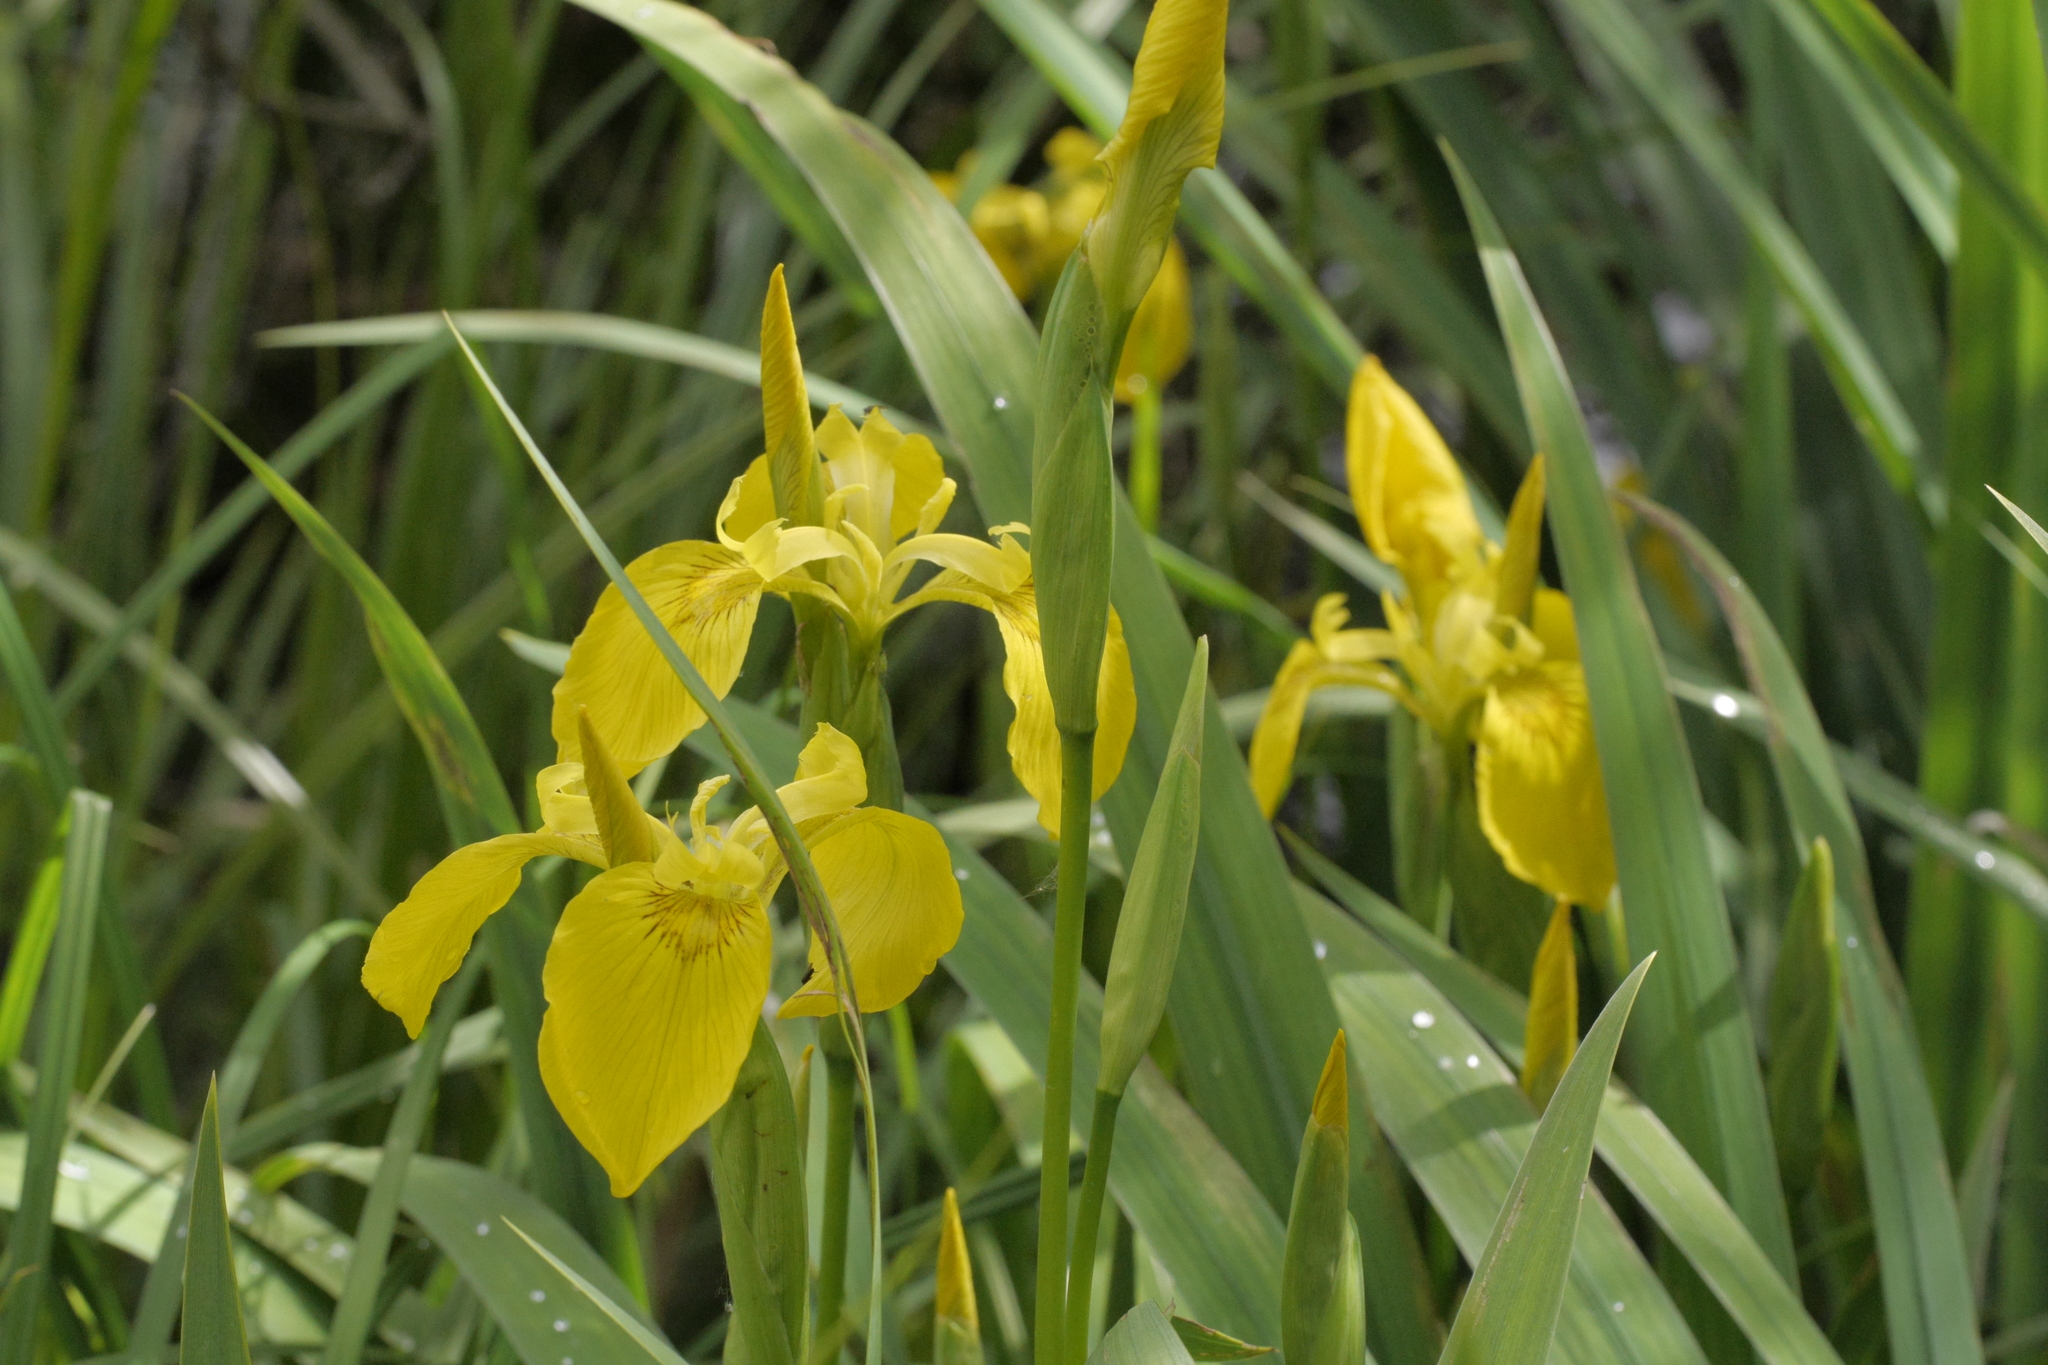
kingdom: Plantae
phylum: Tracheophyta
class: Liliopsida
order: Asparagales
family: Iridaceae
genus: Iris
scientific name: Iris pseudacorus
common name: Yellow flag
